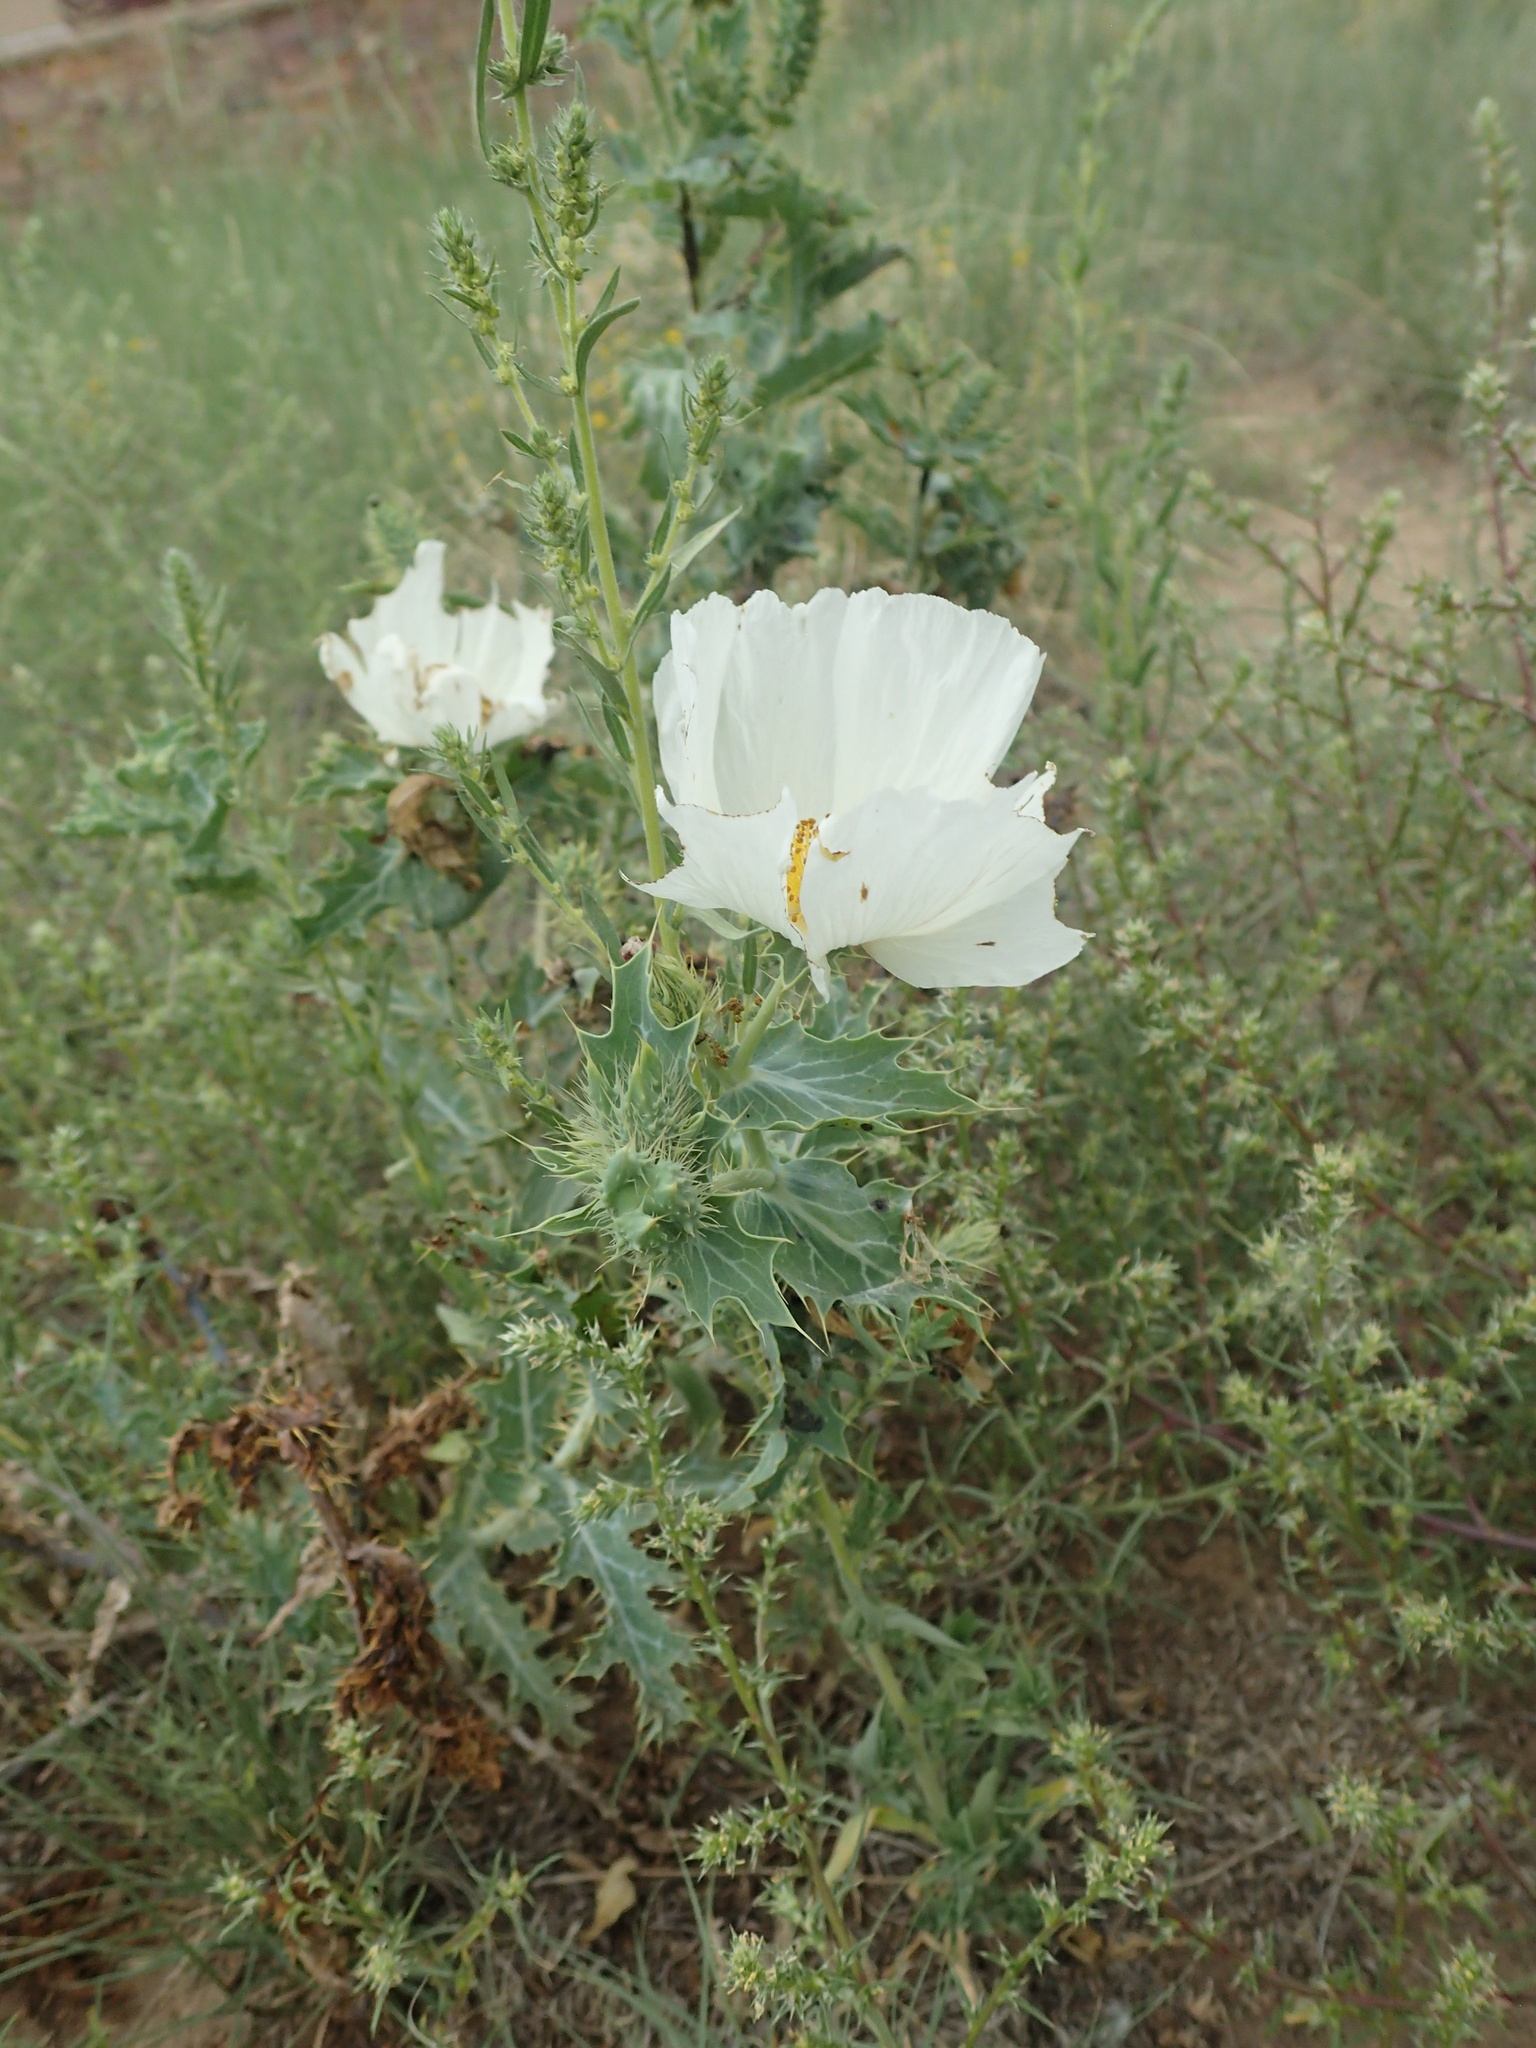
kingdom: Plantae
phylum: Tracheophyta
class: Magnoliopsida
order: Ranunculales
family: Papaveraceae
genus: Argemone
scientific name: Argemone polyanthemos
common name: Plains prickly-poppy
